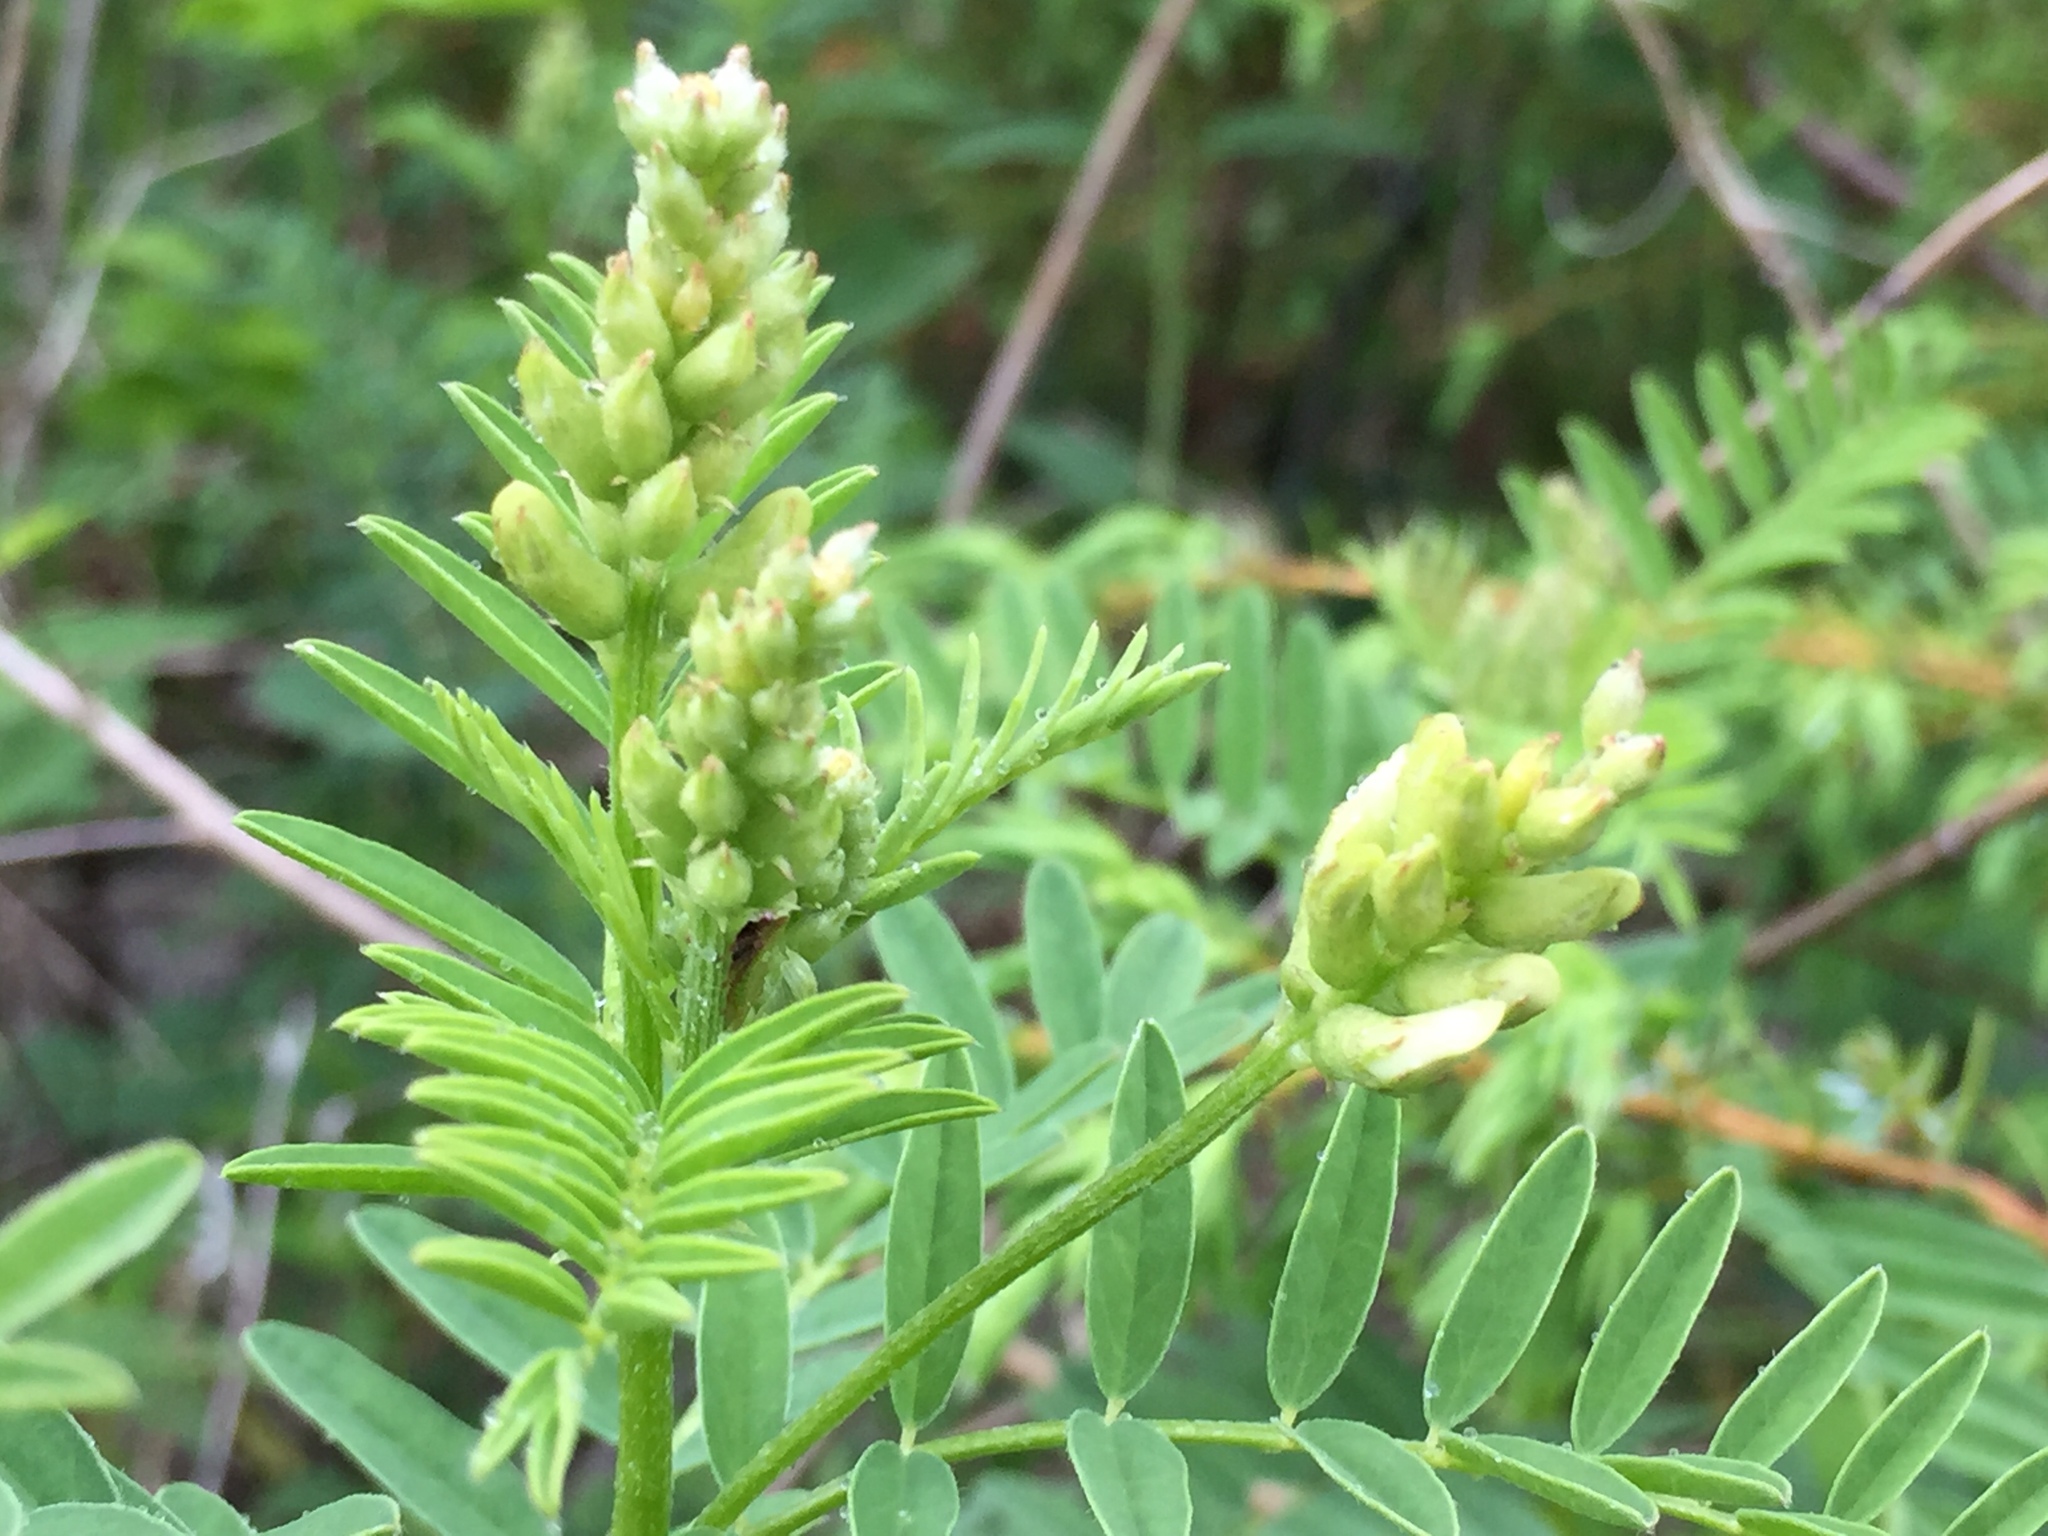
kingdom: Plantae
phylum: Tracheophyta
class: Magnoliopsida
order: Fabales
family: Fabaceae
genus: Astragalus
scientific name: Astragalus neglectus
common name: Cooper's milk-vetch
